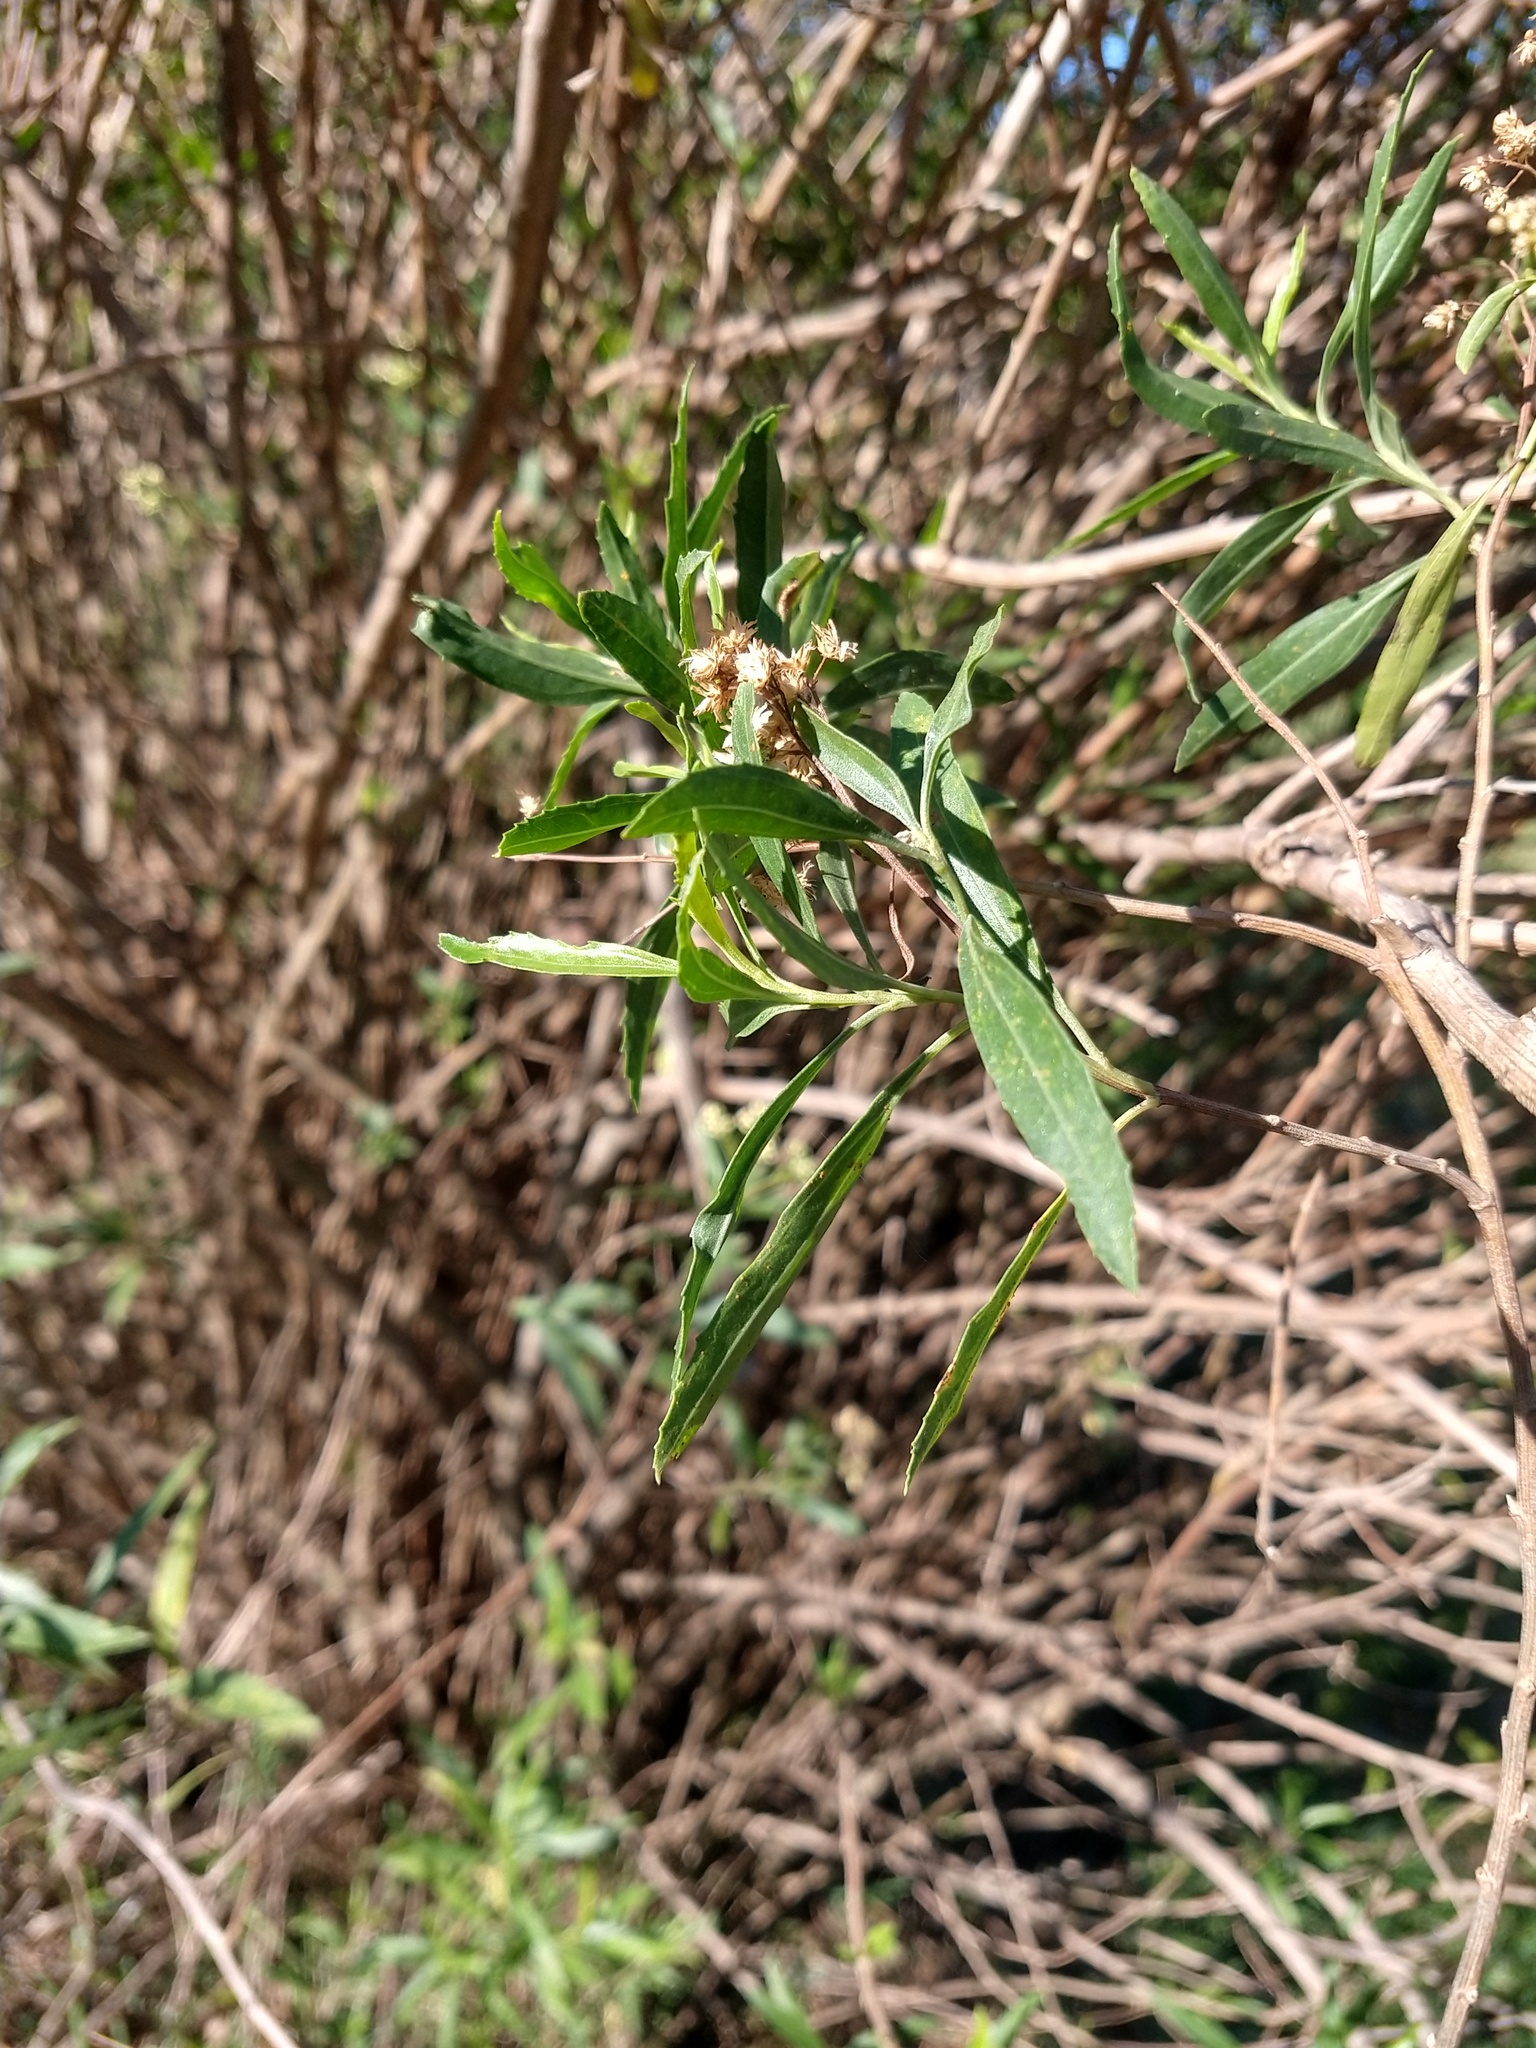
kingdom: Plantae
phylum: Tracheophyta
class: Magnoliopsida
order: Asterales
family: Asteraceae
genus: Baccharis
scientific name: Baccharis salicifolia
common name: Sticky baccharis
